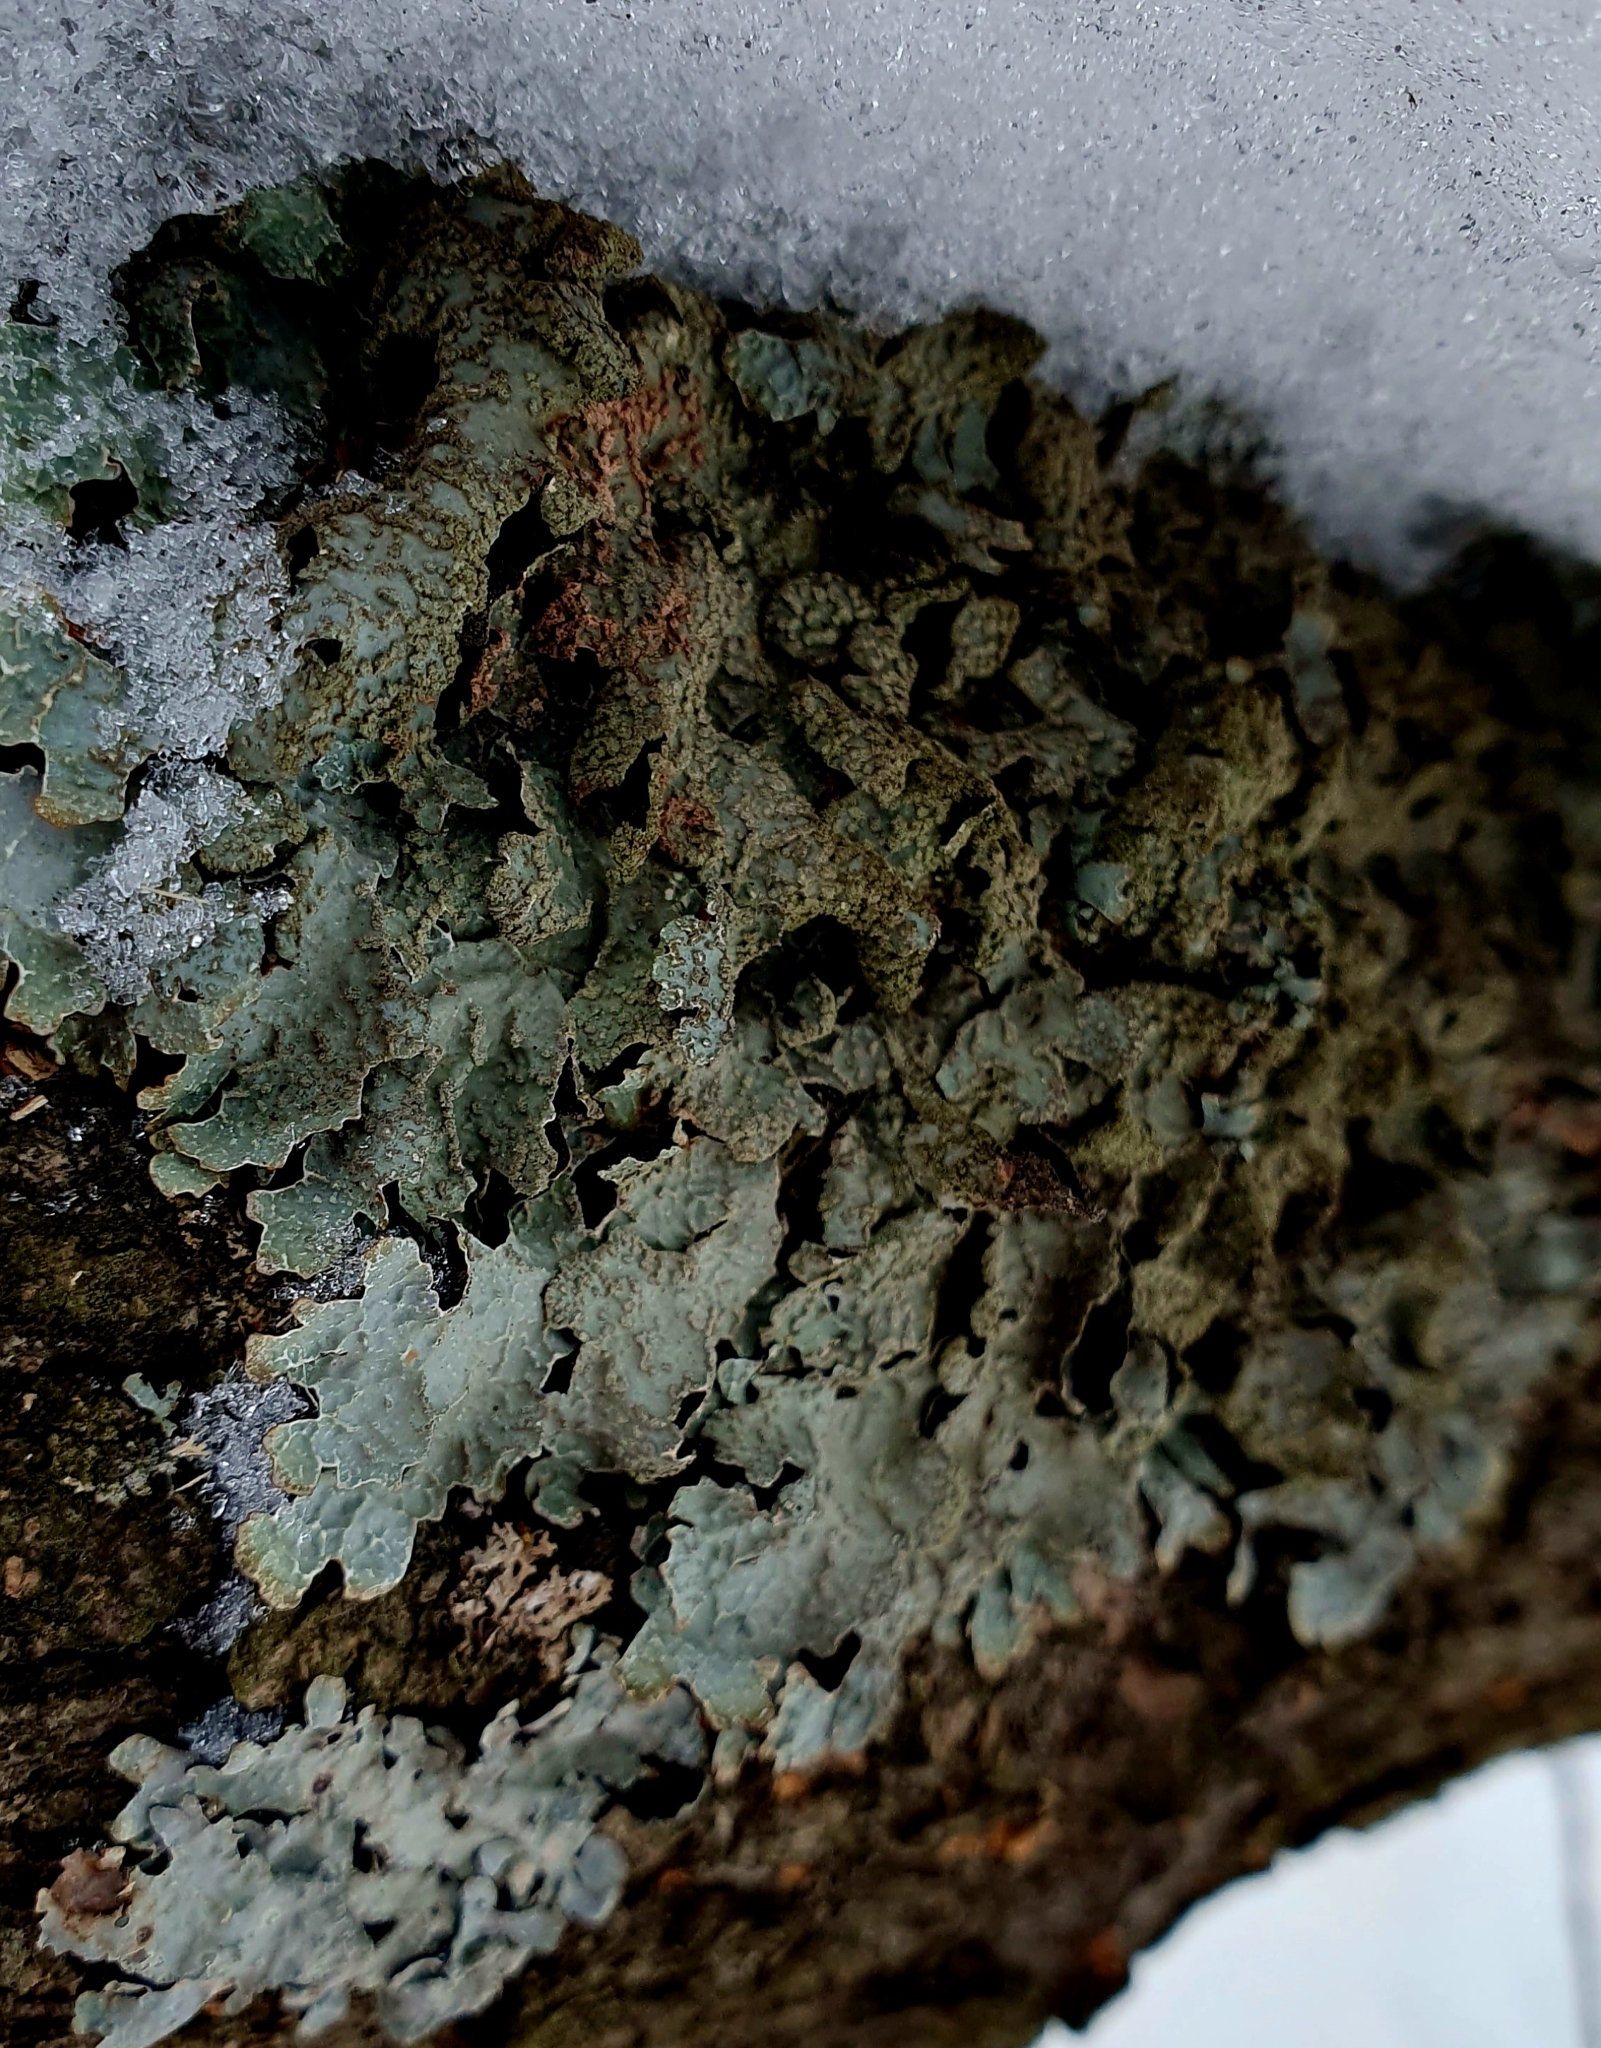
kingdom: Fungi
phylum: Ascomycota
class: Lecanoromycetes
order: Lecanorales
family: Parmeliaceae
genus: Parmelia
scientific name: Parmelia sulcata
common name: Netted shield lichen
